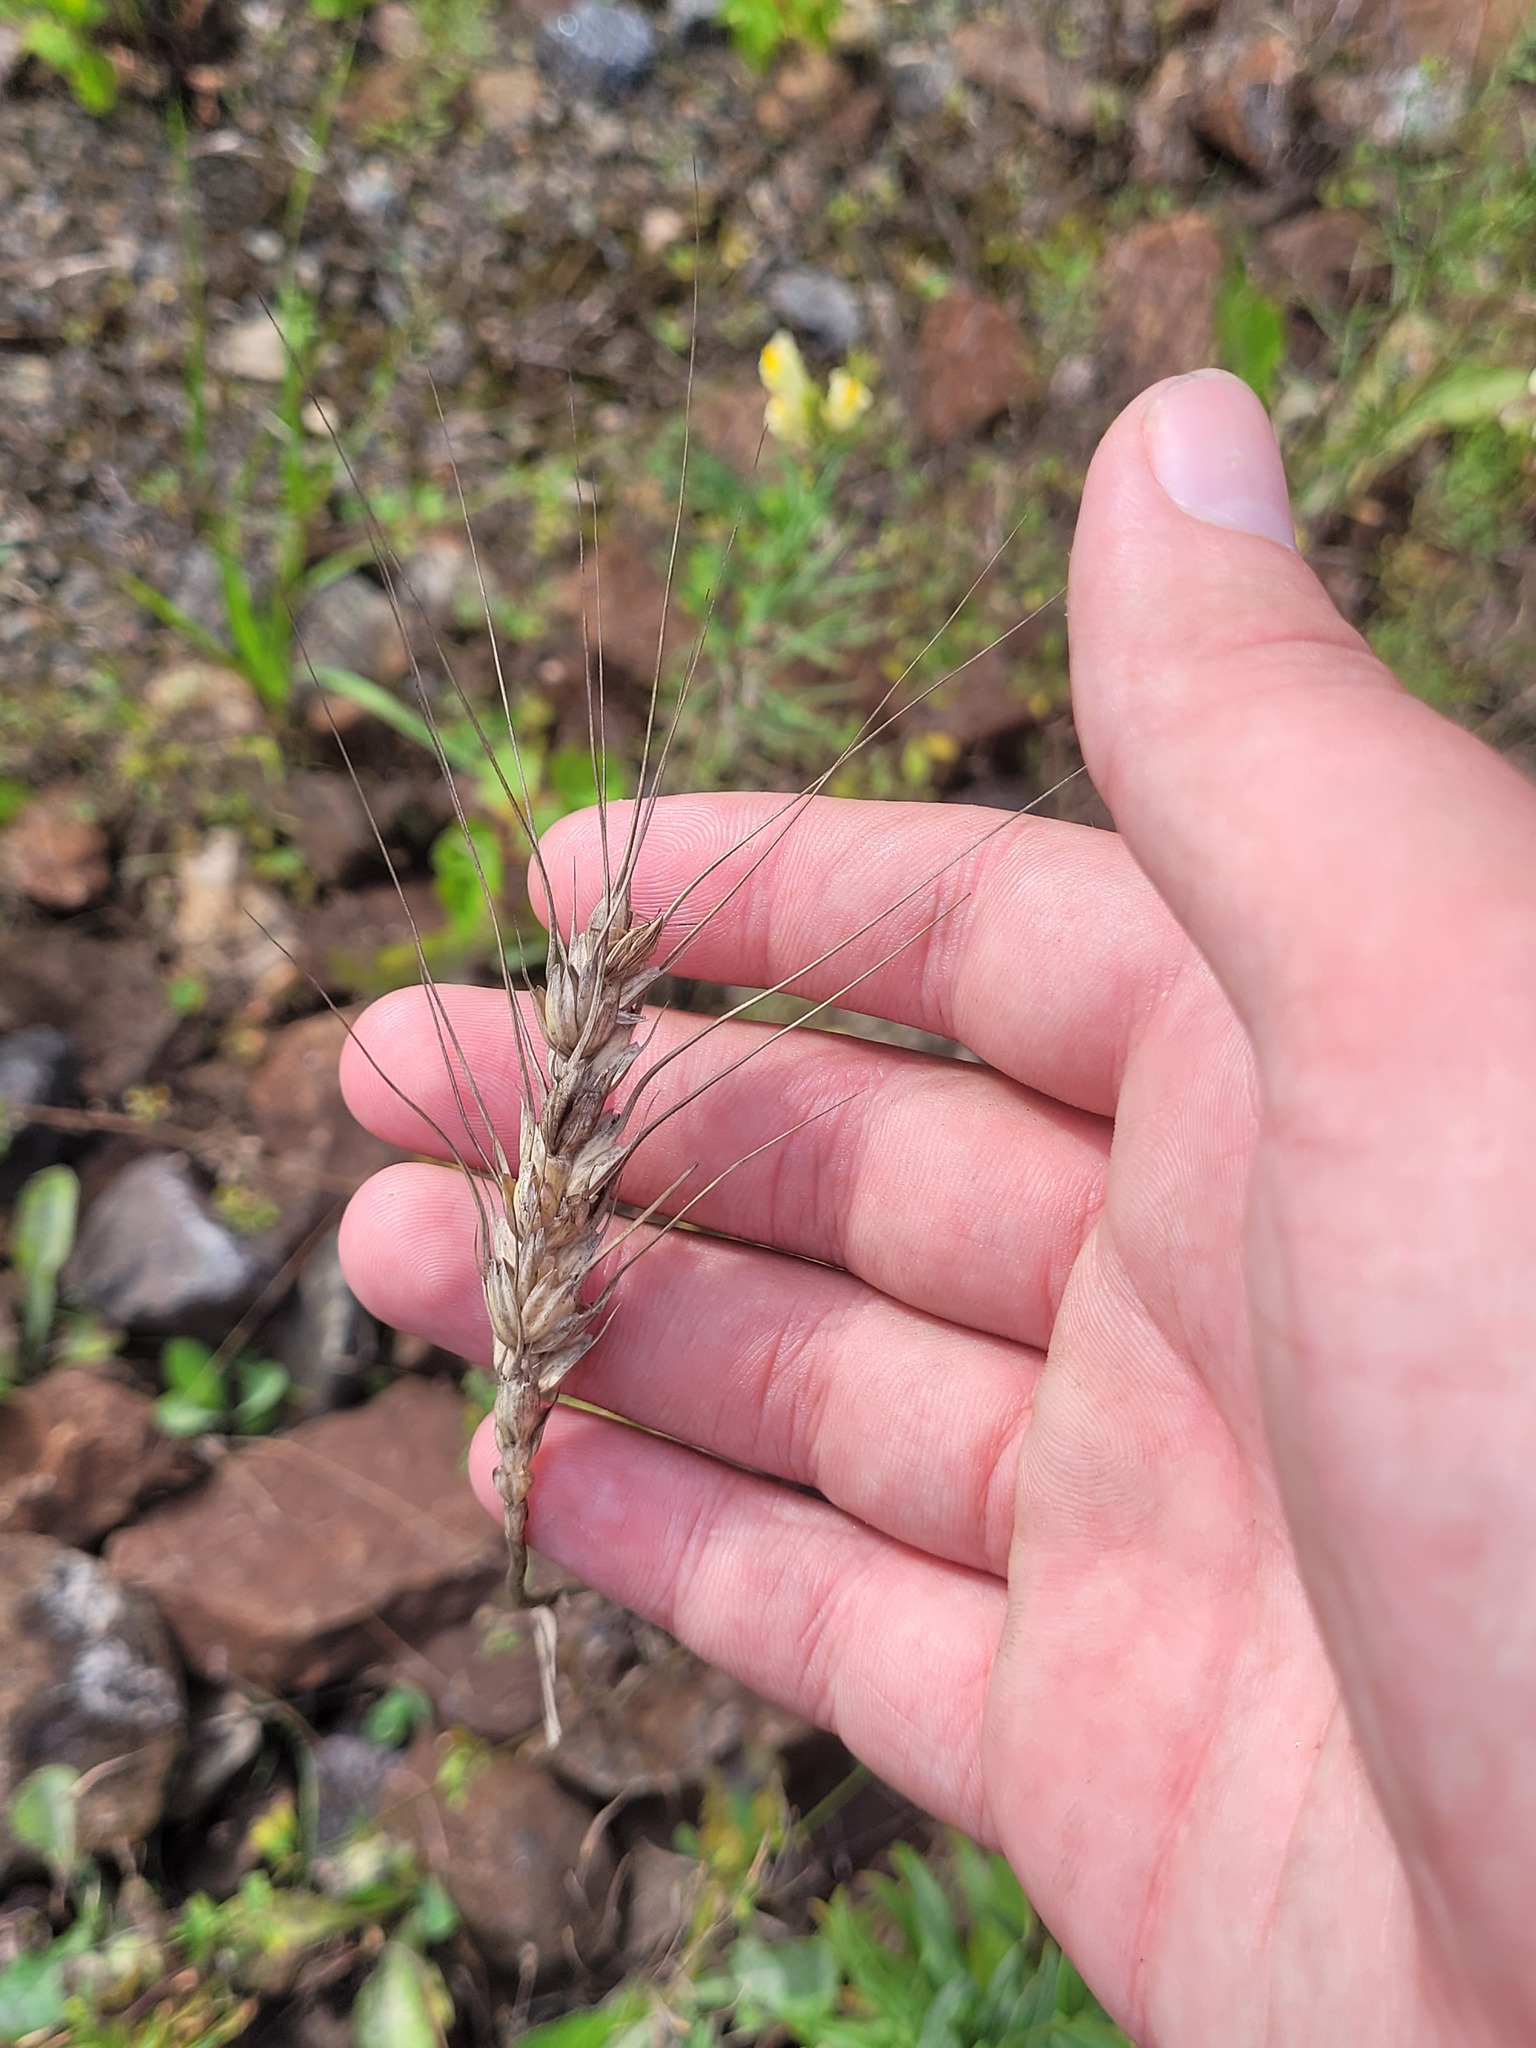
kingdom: Plantae
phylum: Tracheophyta
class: Liliopsida
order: Poales
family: Poaceae
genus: Triticum
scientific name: Triticum aestivum
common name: Common wheat
